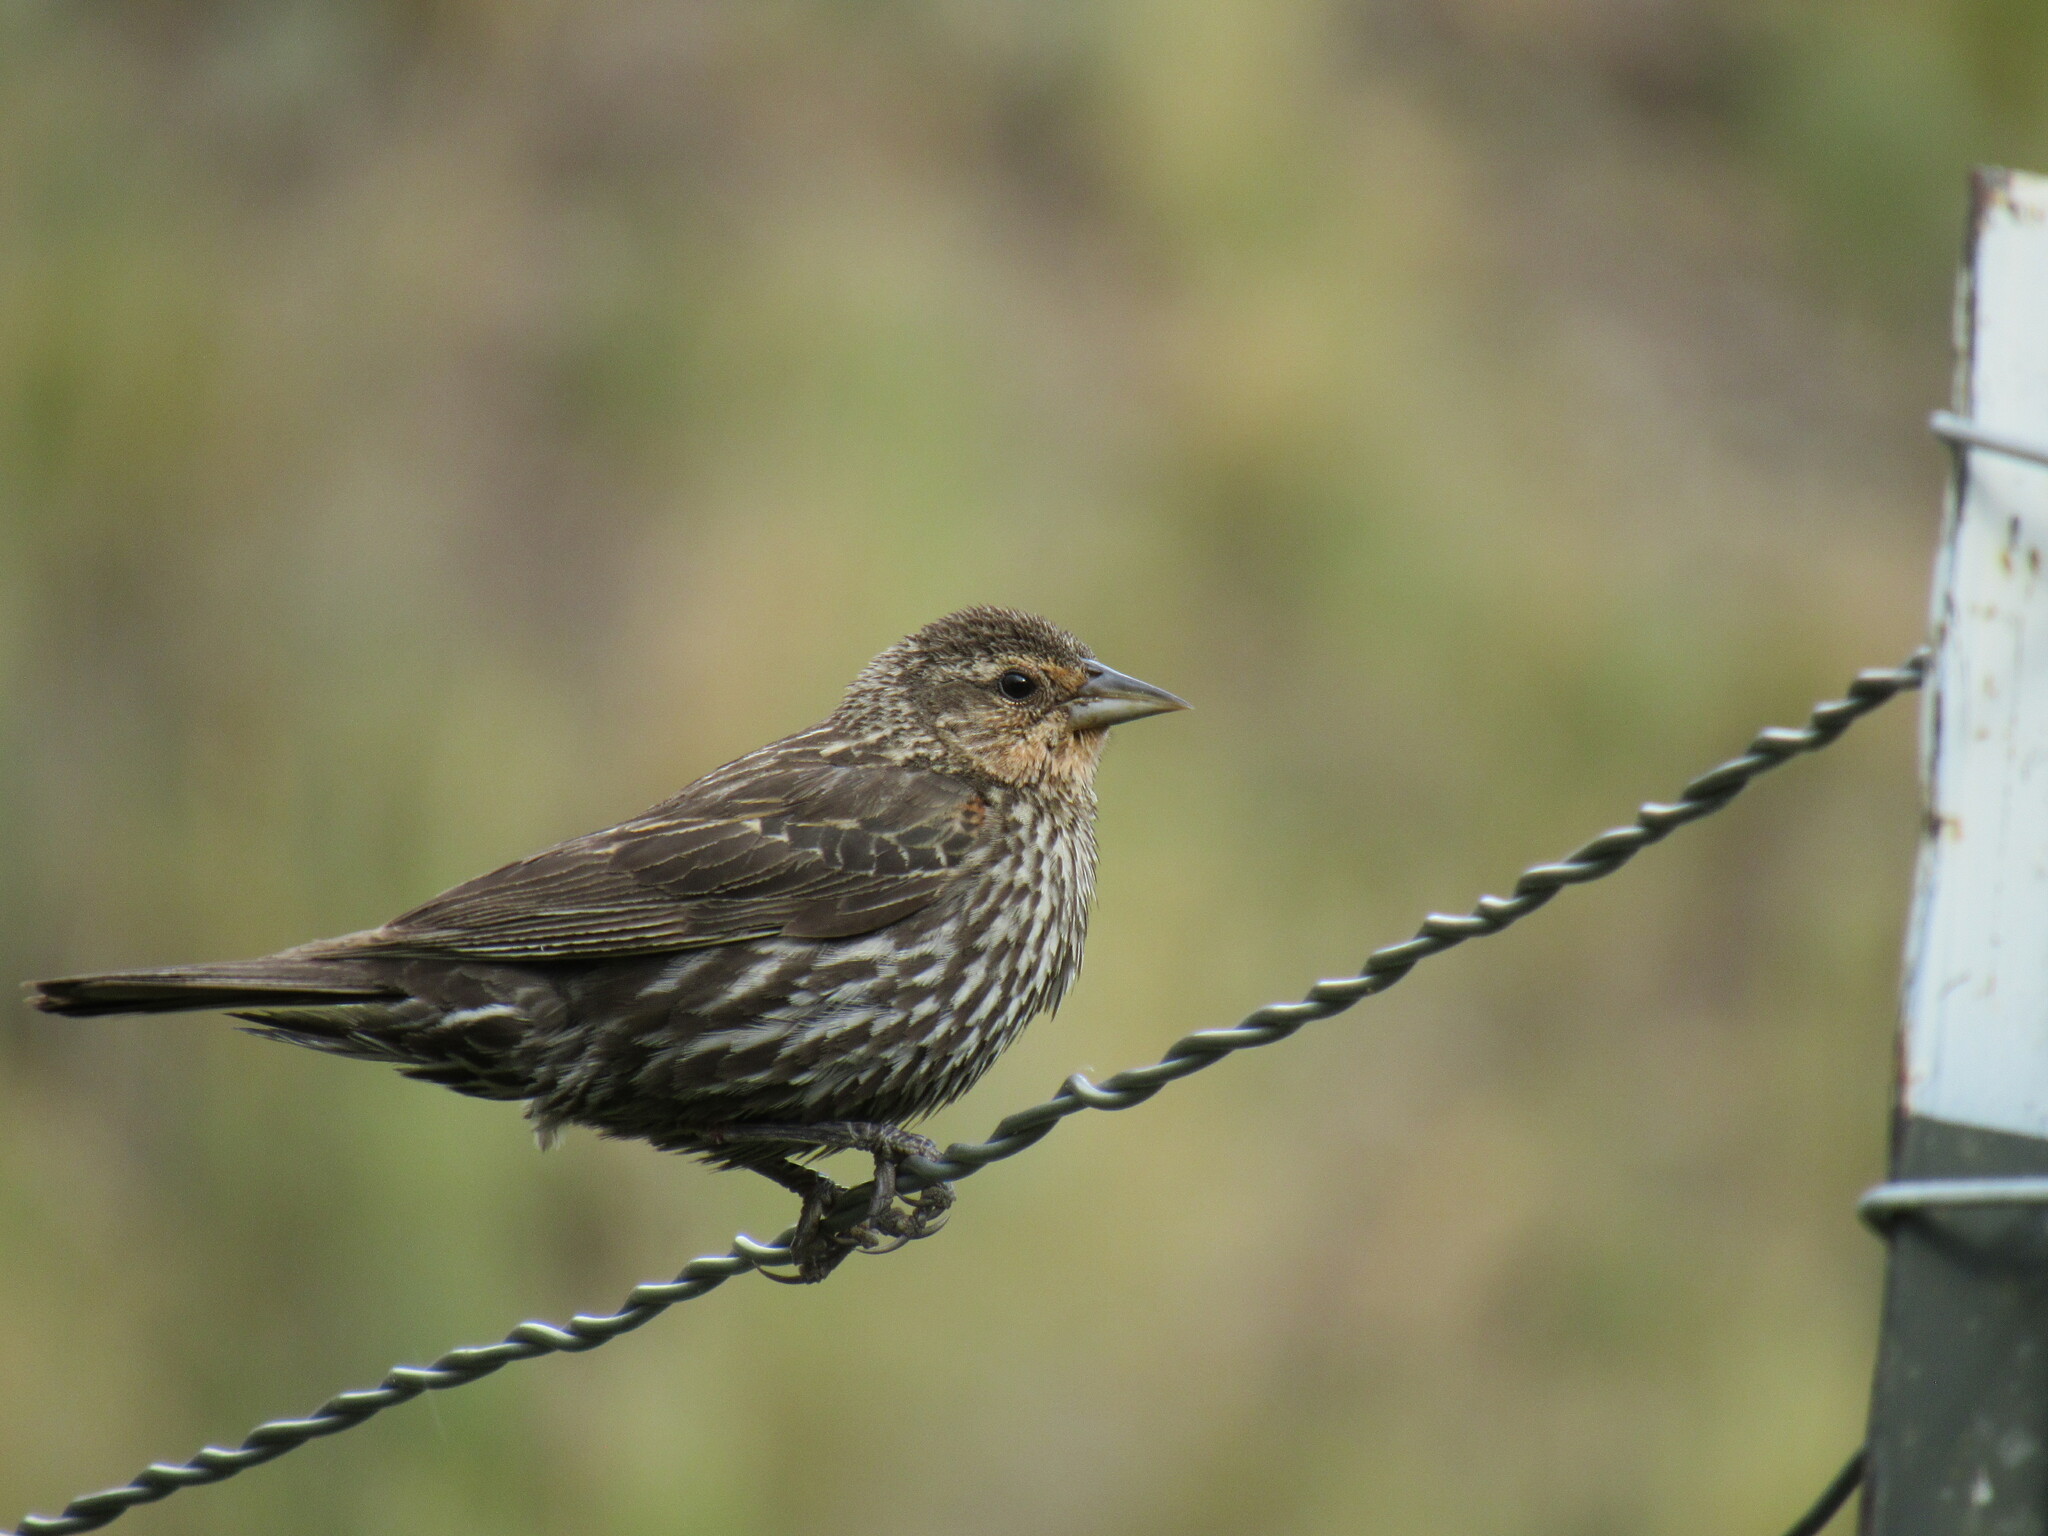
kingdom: Animalia
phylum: Chordata
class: Aves
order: Passeriformes
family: Icteridae
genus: Agelaius
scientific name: Agelaius phoeniceus
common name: Red-winged blackbird
